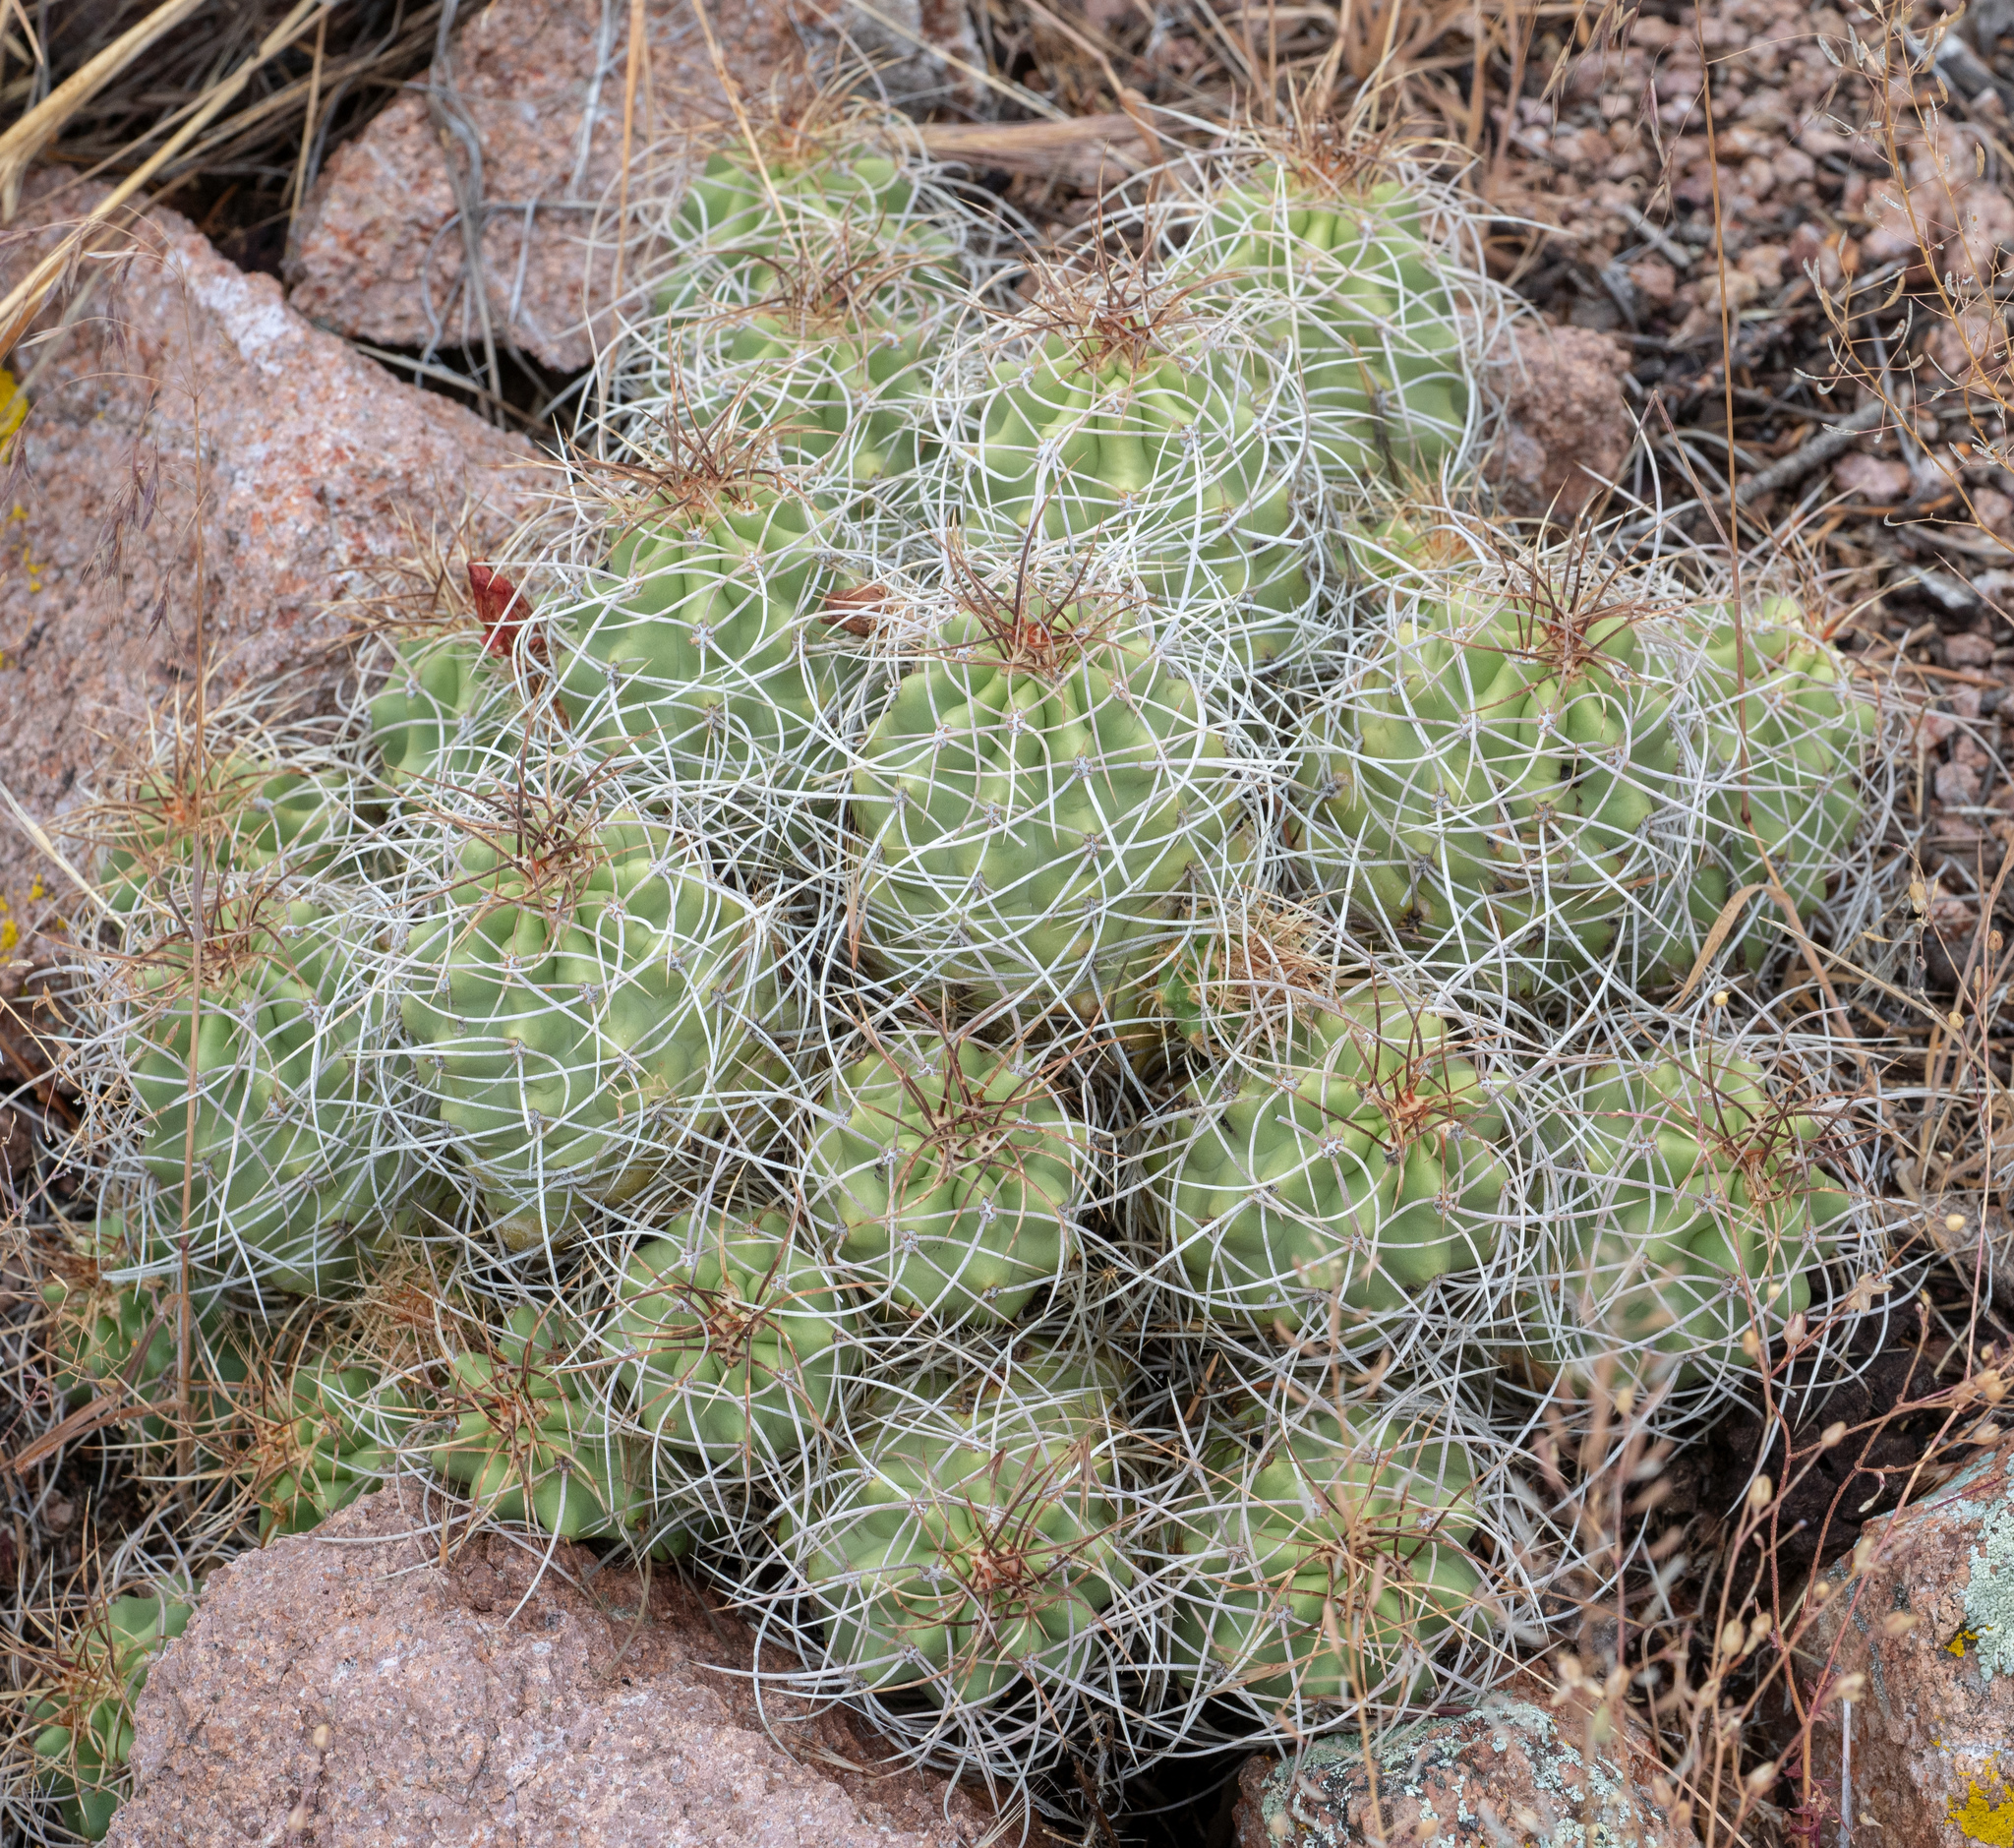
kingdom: Plantae
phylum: Tracheophyta
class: Magnoliopsida
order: Caryophyllales
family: Cactaceae
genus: Echinocereus
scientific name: Echinocereus triglochidiatus
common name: Claretcup hedgehog
